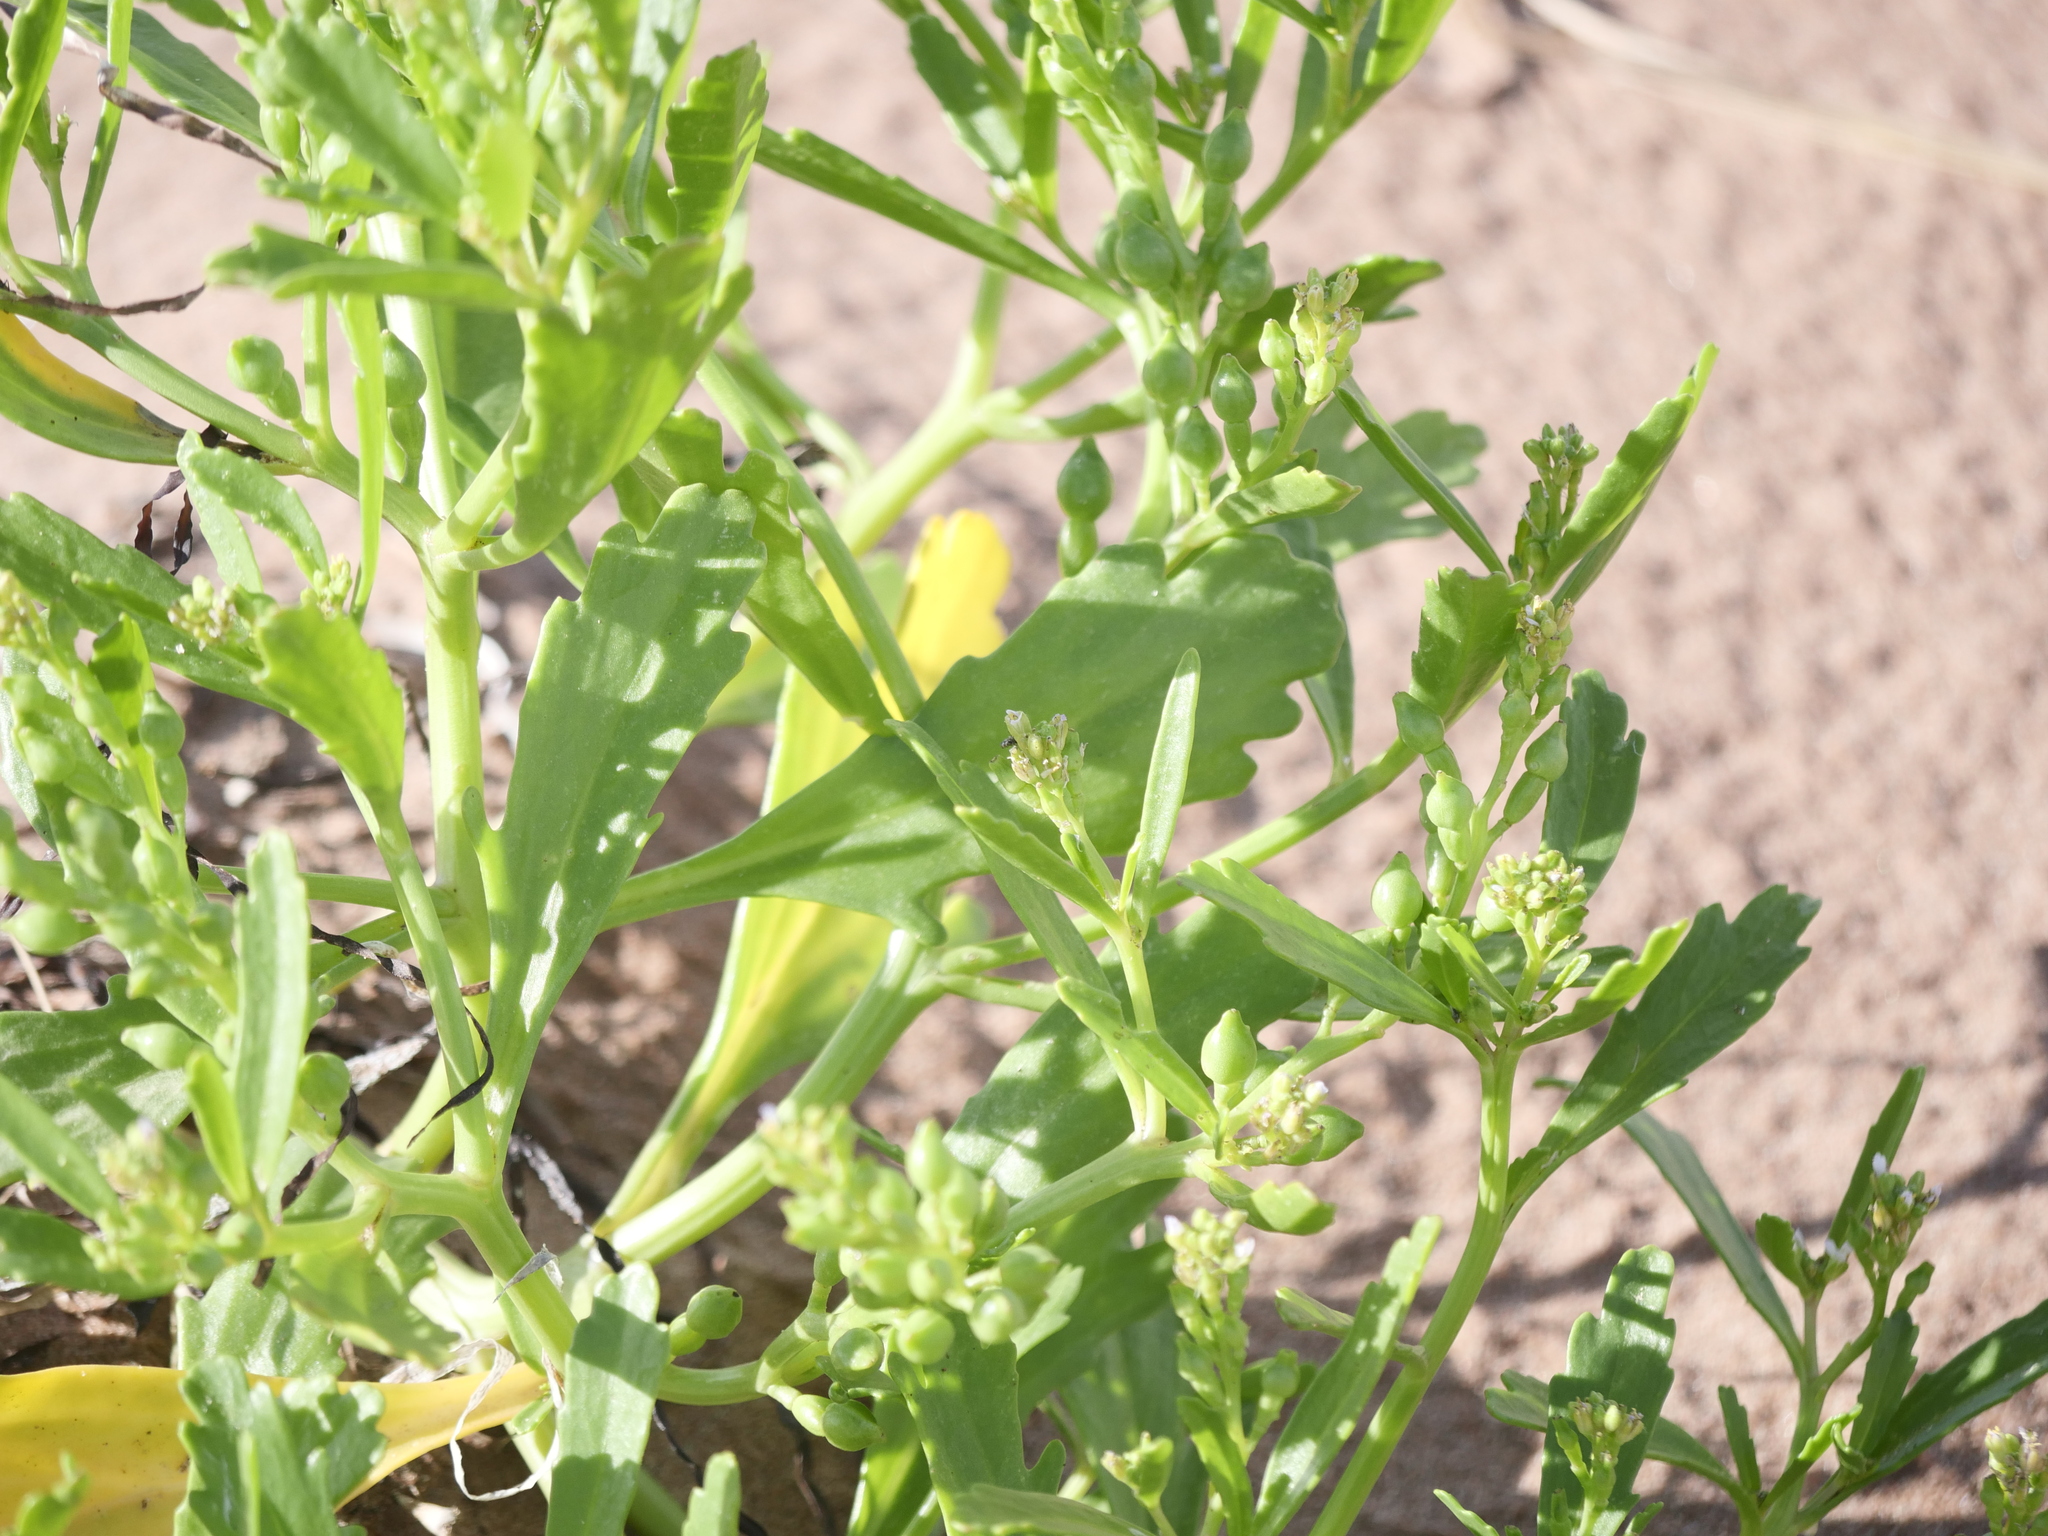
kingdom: Plantae
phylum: Tracheophyta
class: Magnoliopsida
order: Brassicales
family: Brassicaceae
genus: Cakile
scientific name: Cakile edentula
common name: American sea rocket
